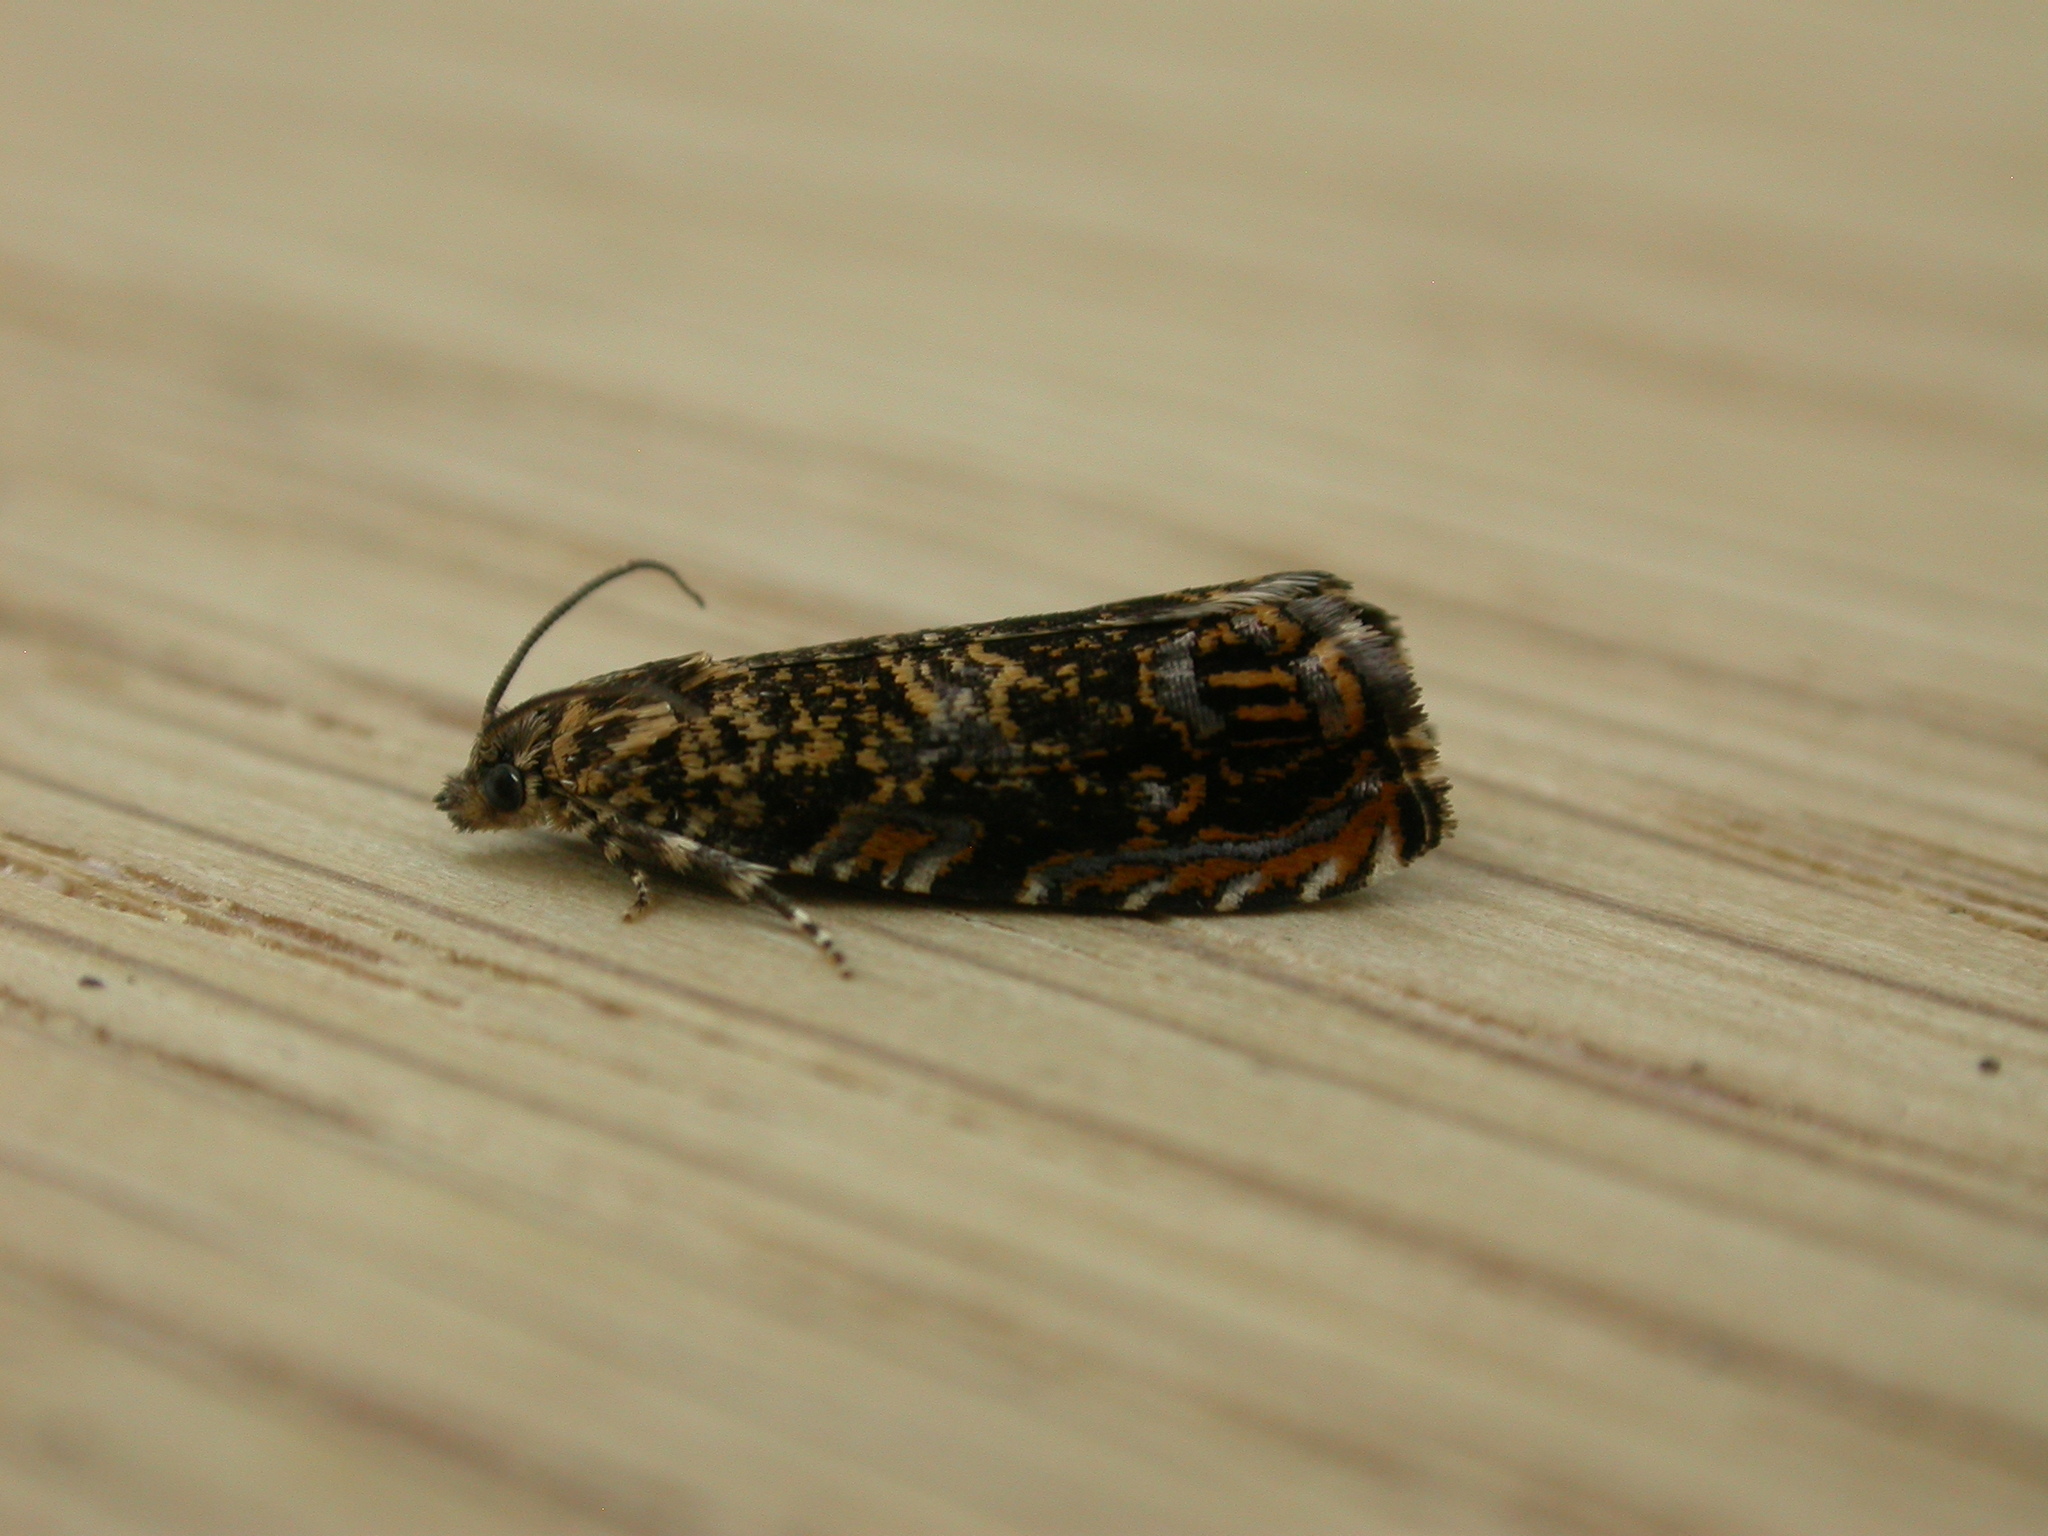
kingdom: Animalia
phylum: Arthropoda
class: Insecta
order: Lepidoptera
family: Tortricidae
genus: Enarmonia
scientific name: Enarmonia formosana
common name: Cherry bark tortrix
